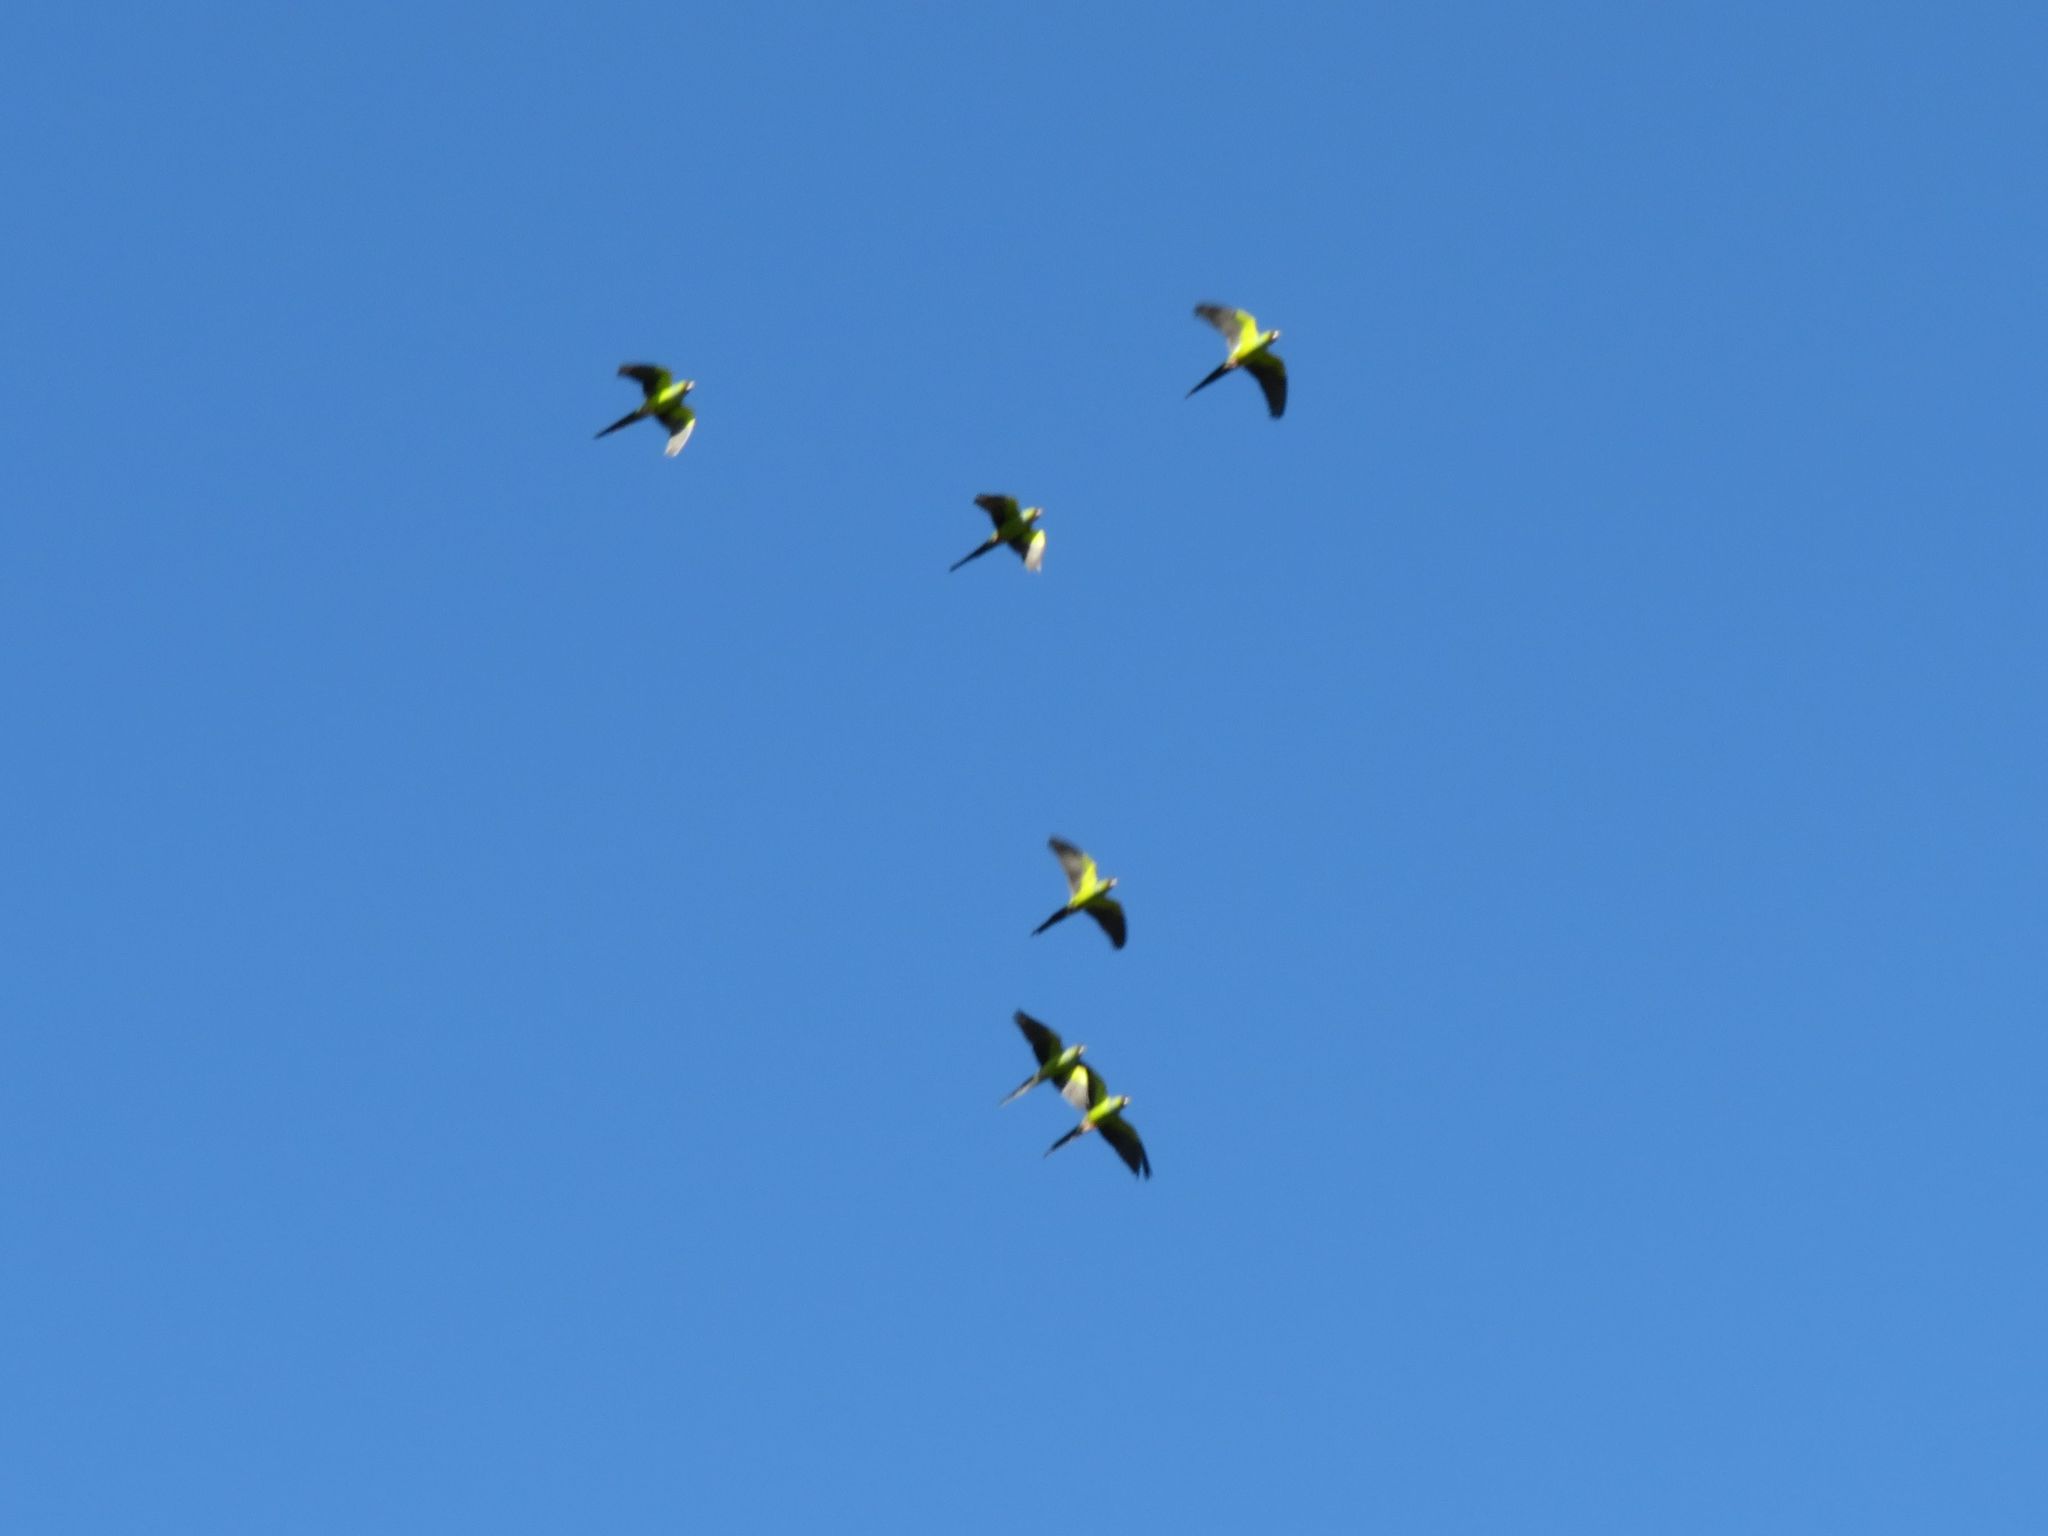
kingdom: Animalia
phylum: Chordata
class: Aves
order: Psittaciformes
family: Psittacidae
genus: Nandayus
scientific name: Nandayus nenday
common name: Nanday parakeet
